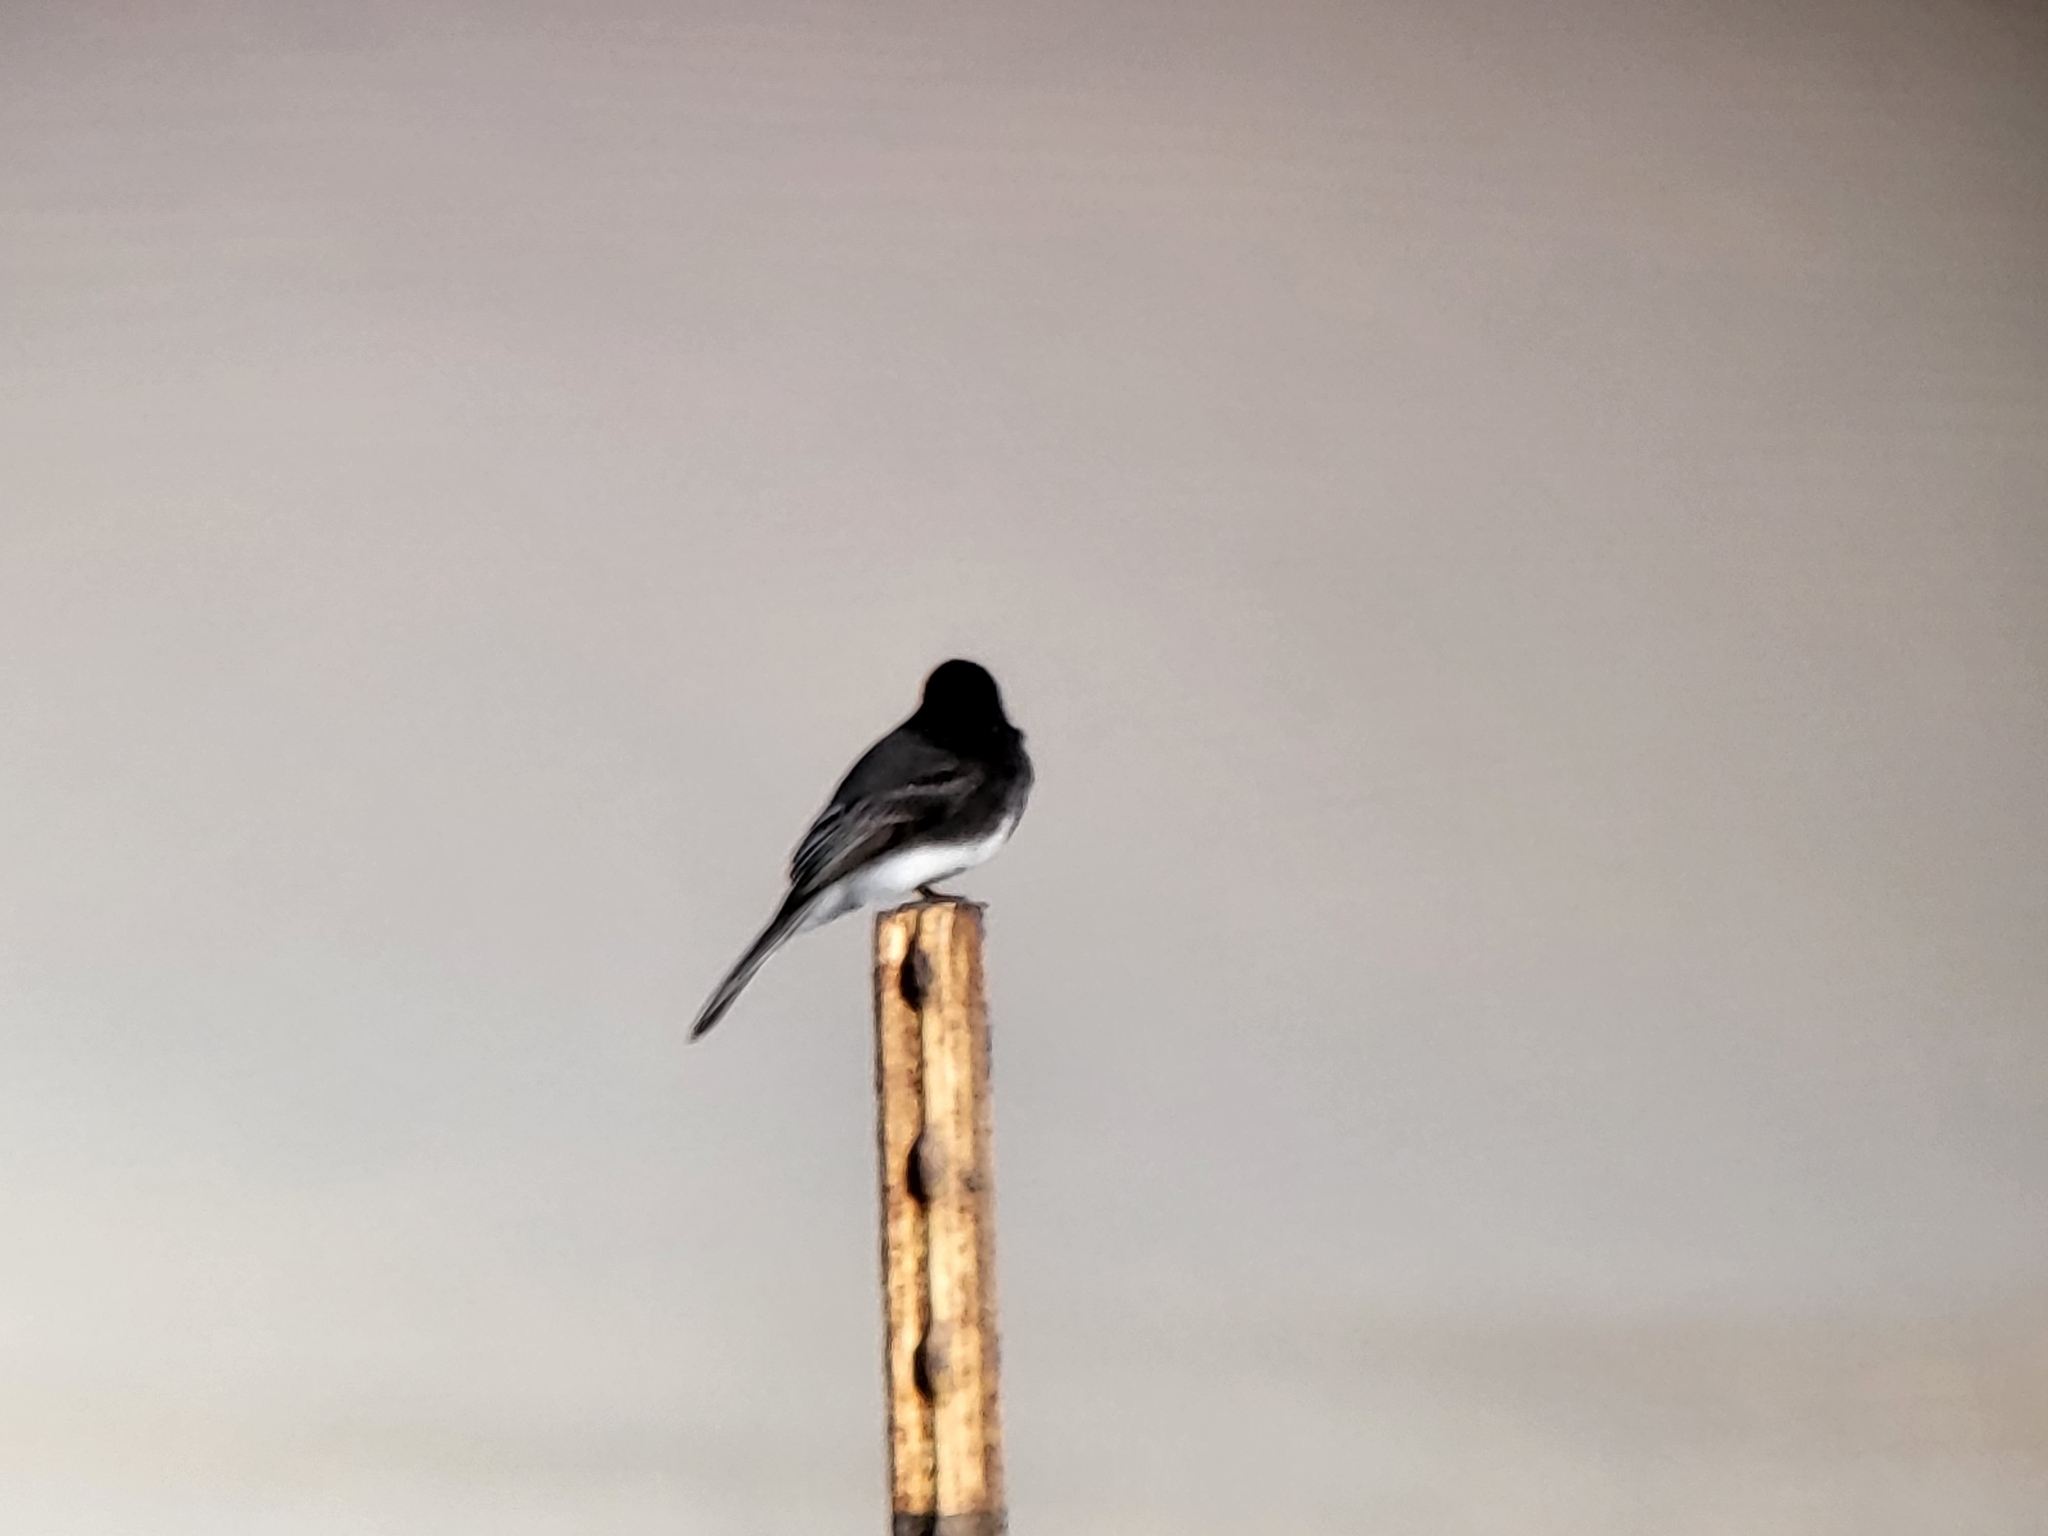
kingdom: Animalia
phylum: Chordata
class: Aves
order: Passeriformes
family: Tyrannidae
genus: Sayornis
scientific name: Sayornis nigricans
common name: Black phoebe
